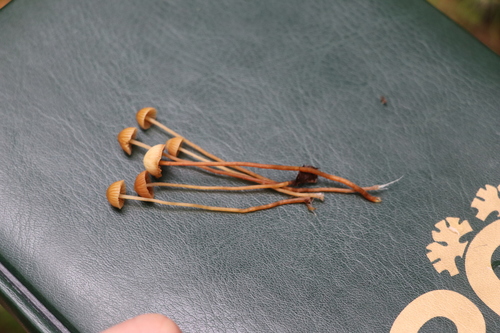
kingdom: Fungi
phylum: Basidiomycota
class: Agaricomycetes
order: Agaricales
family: Hymenogastraceae
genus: Galerina
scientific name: Galerina
